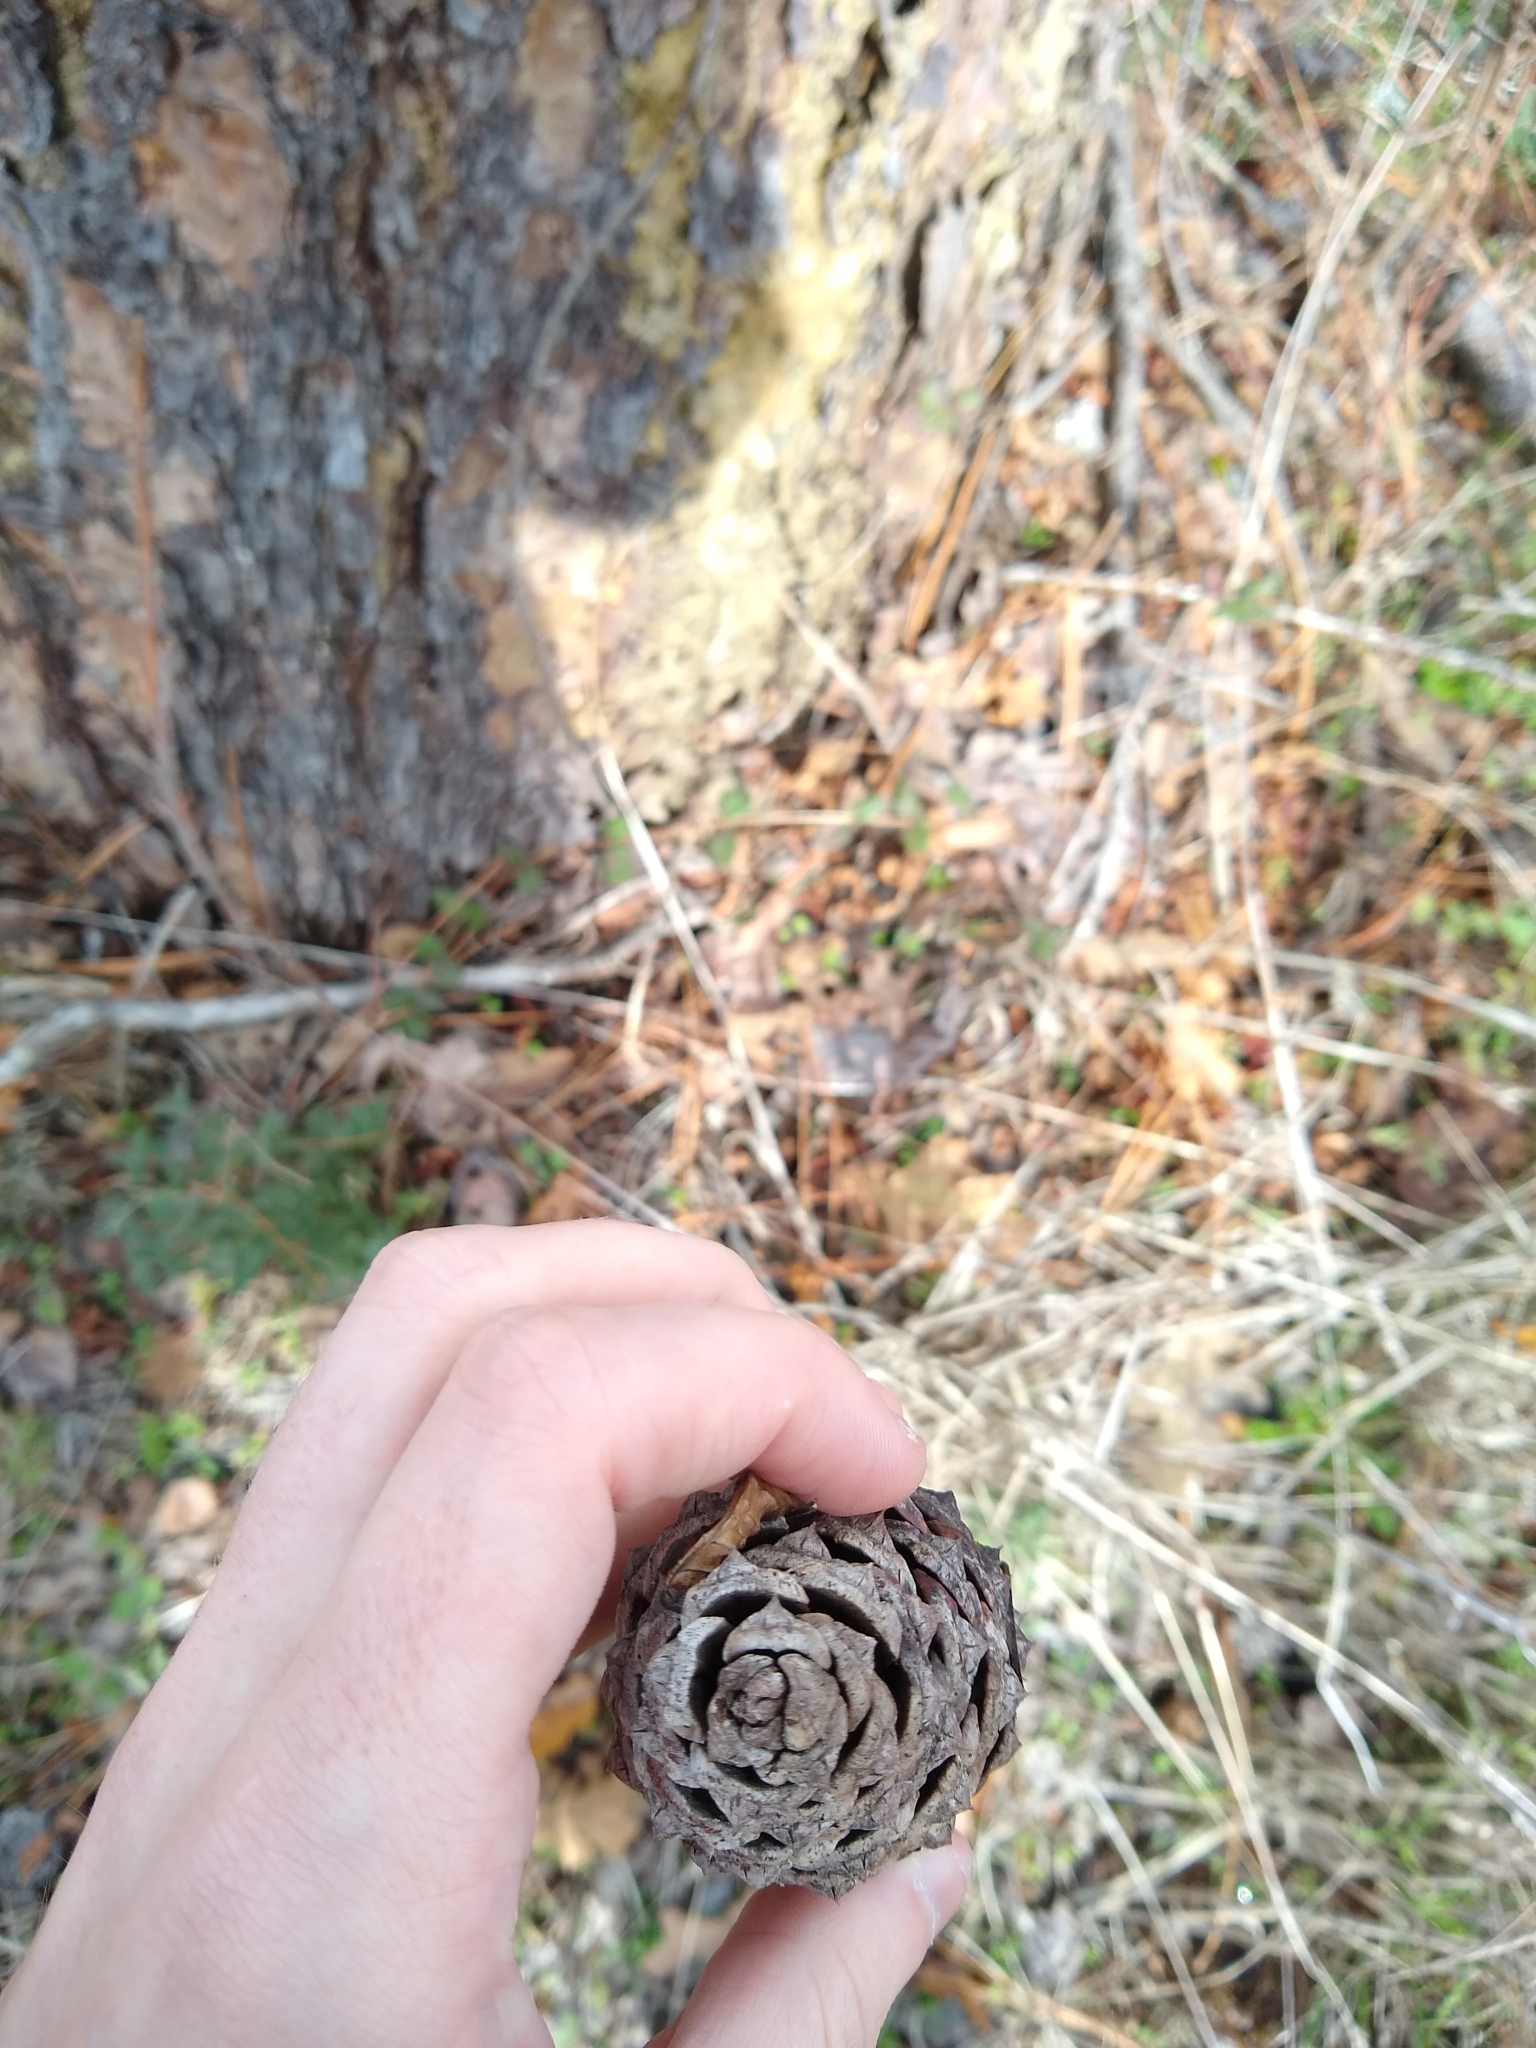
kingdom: Plantae
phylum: Tracheophyta
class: Pinopsida
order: Pinales
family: Pinaceae
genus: Pinus
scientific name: Pinus ponderosa
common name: Western yellow-pine
